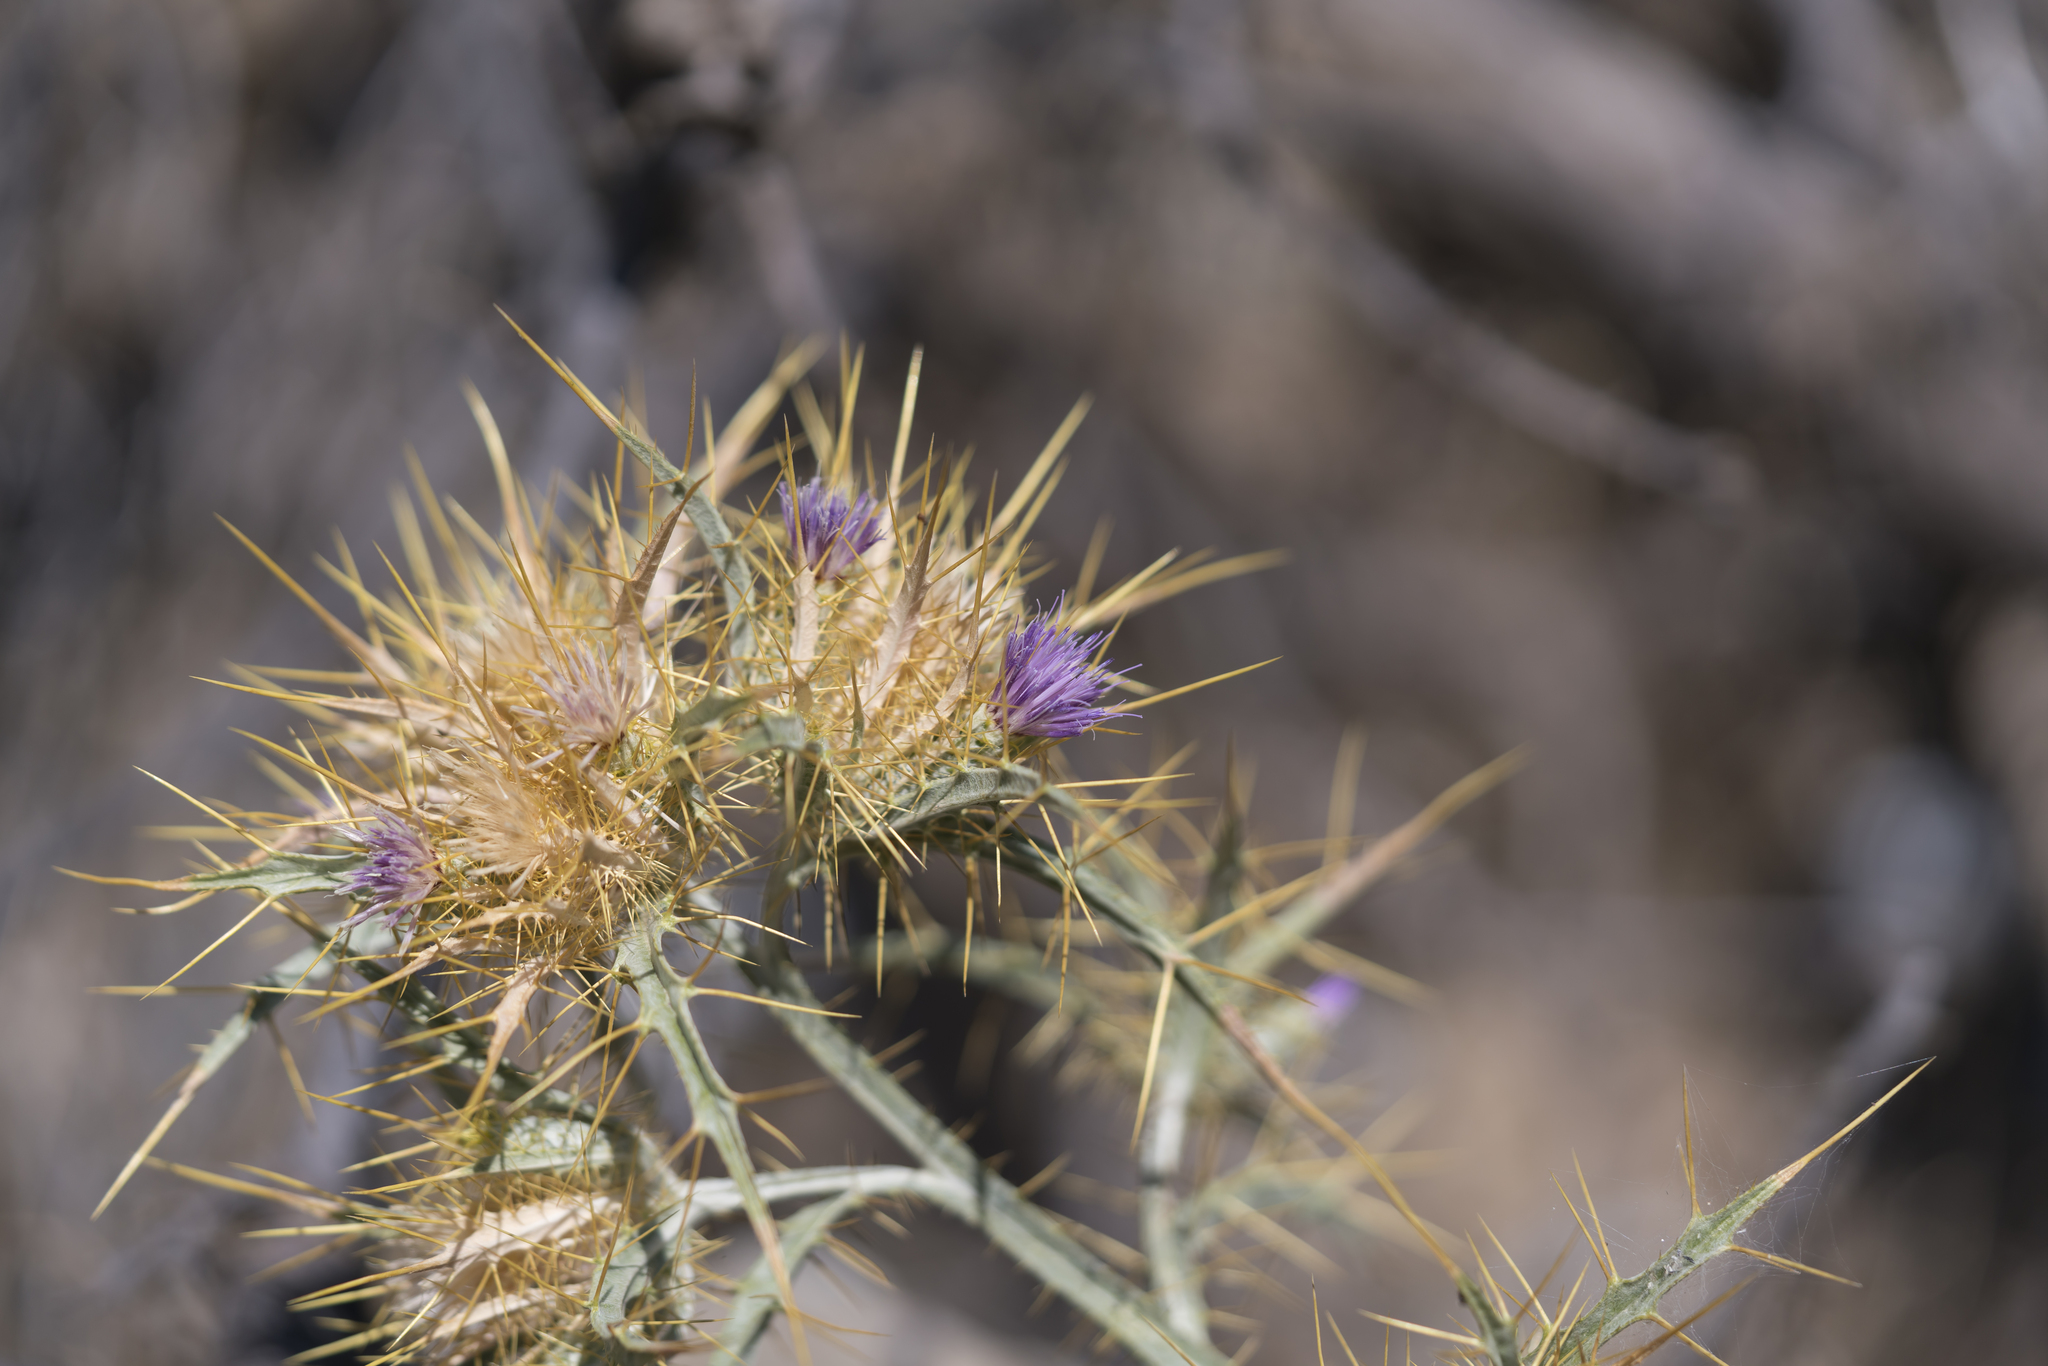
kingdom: Plantae
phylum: Tracheophyta
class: Magnoliopsida
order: Asterales
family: Asteraceae
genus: Picnomon
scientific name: Picnomon acarna
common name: Soldier thistle
